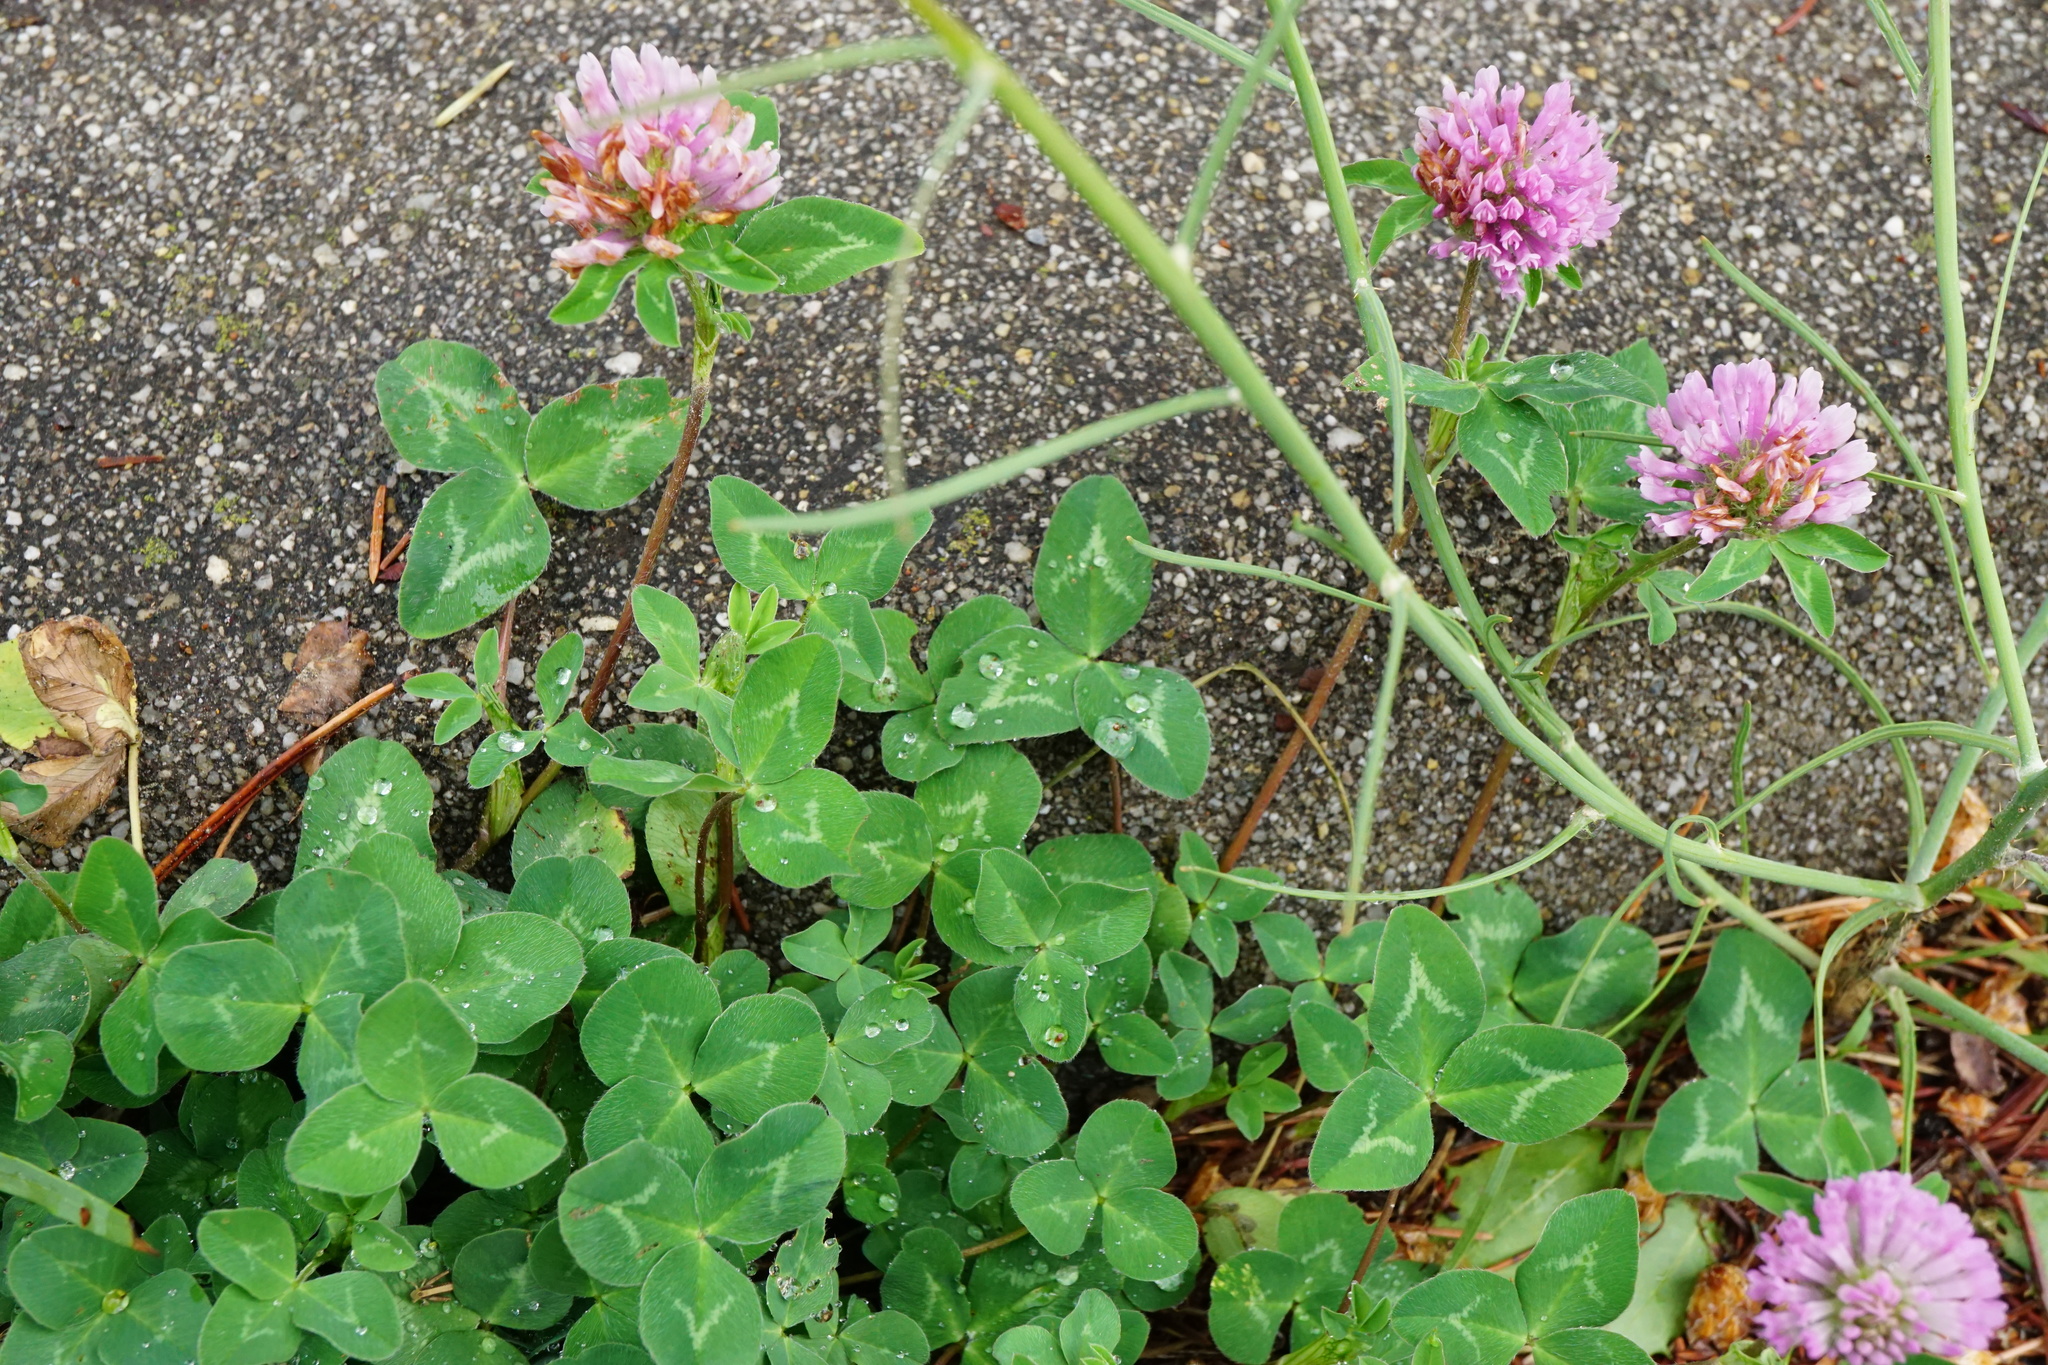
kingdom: Plantae
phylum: Tracheophyta
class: Magnoliopsida
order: Fabales
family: Fabaceae
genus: Trifolium
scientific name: Trifolium pratense
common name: Red clover
